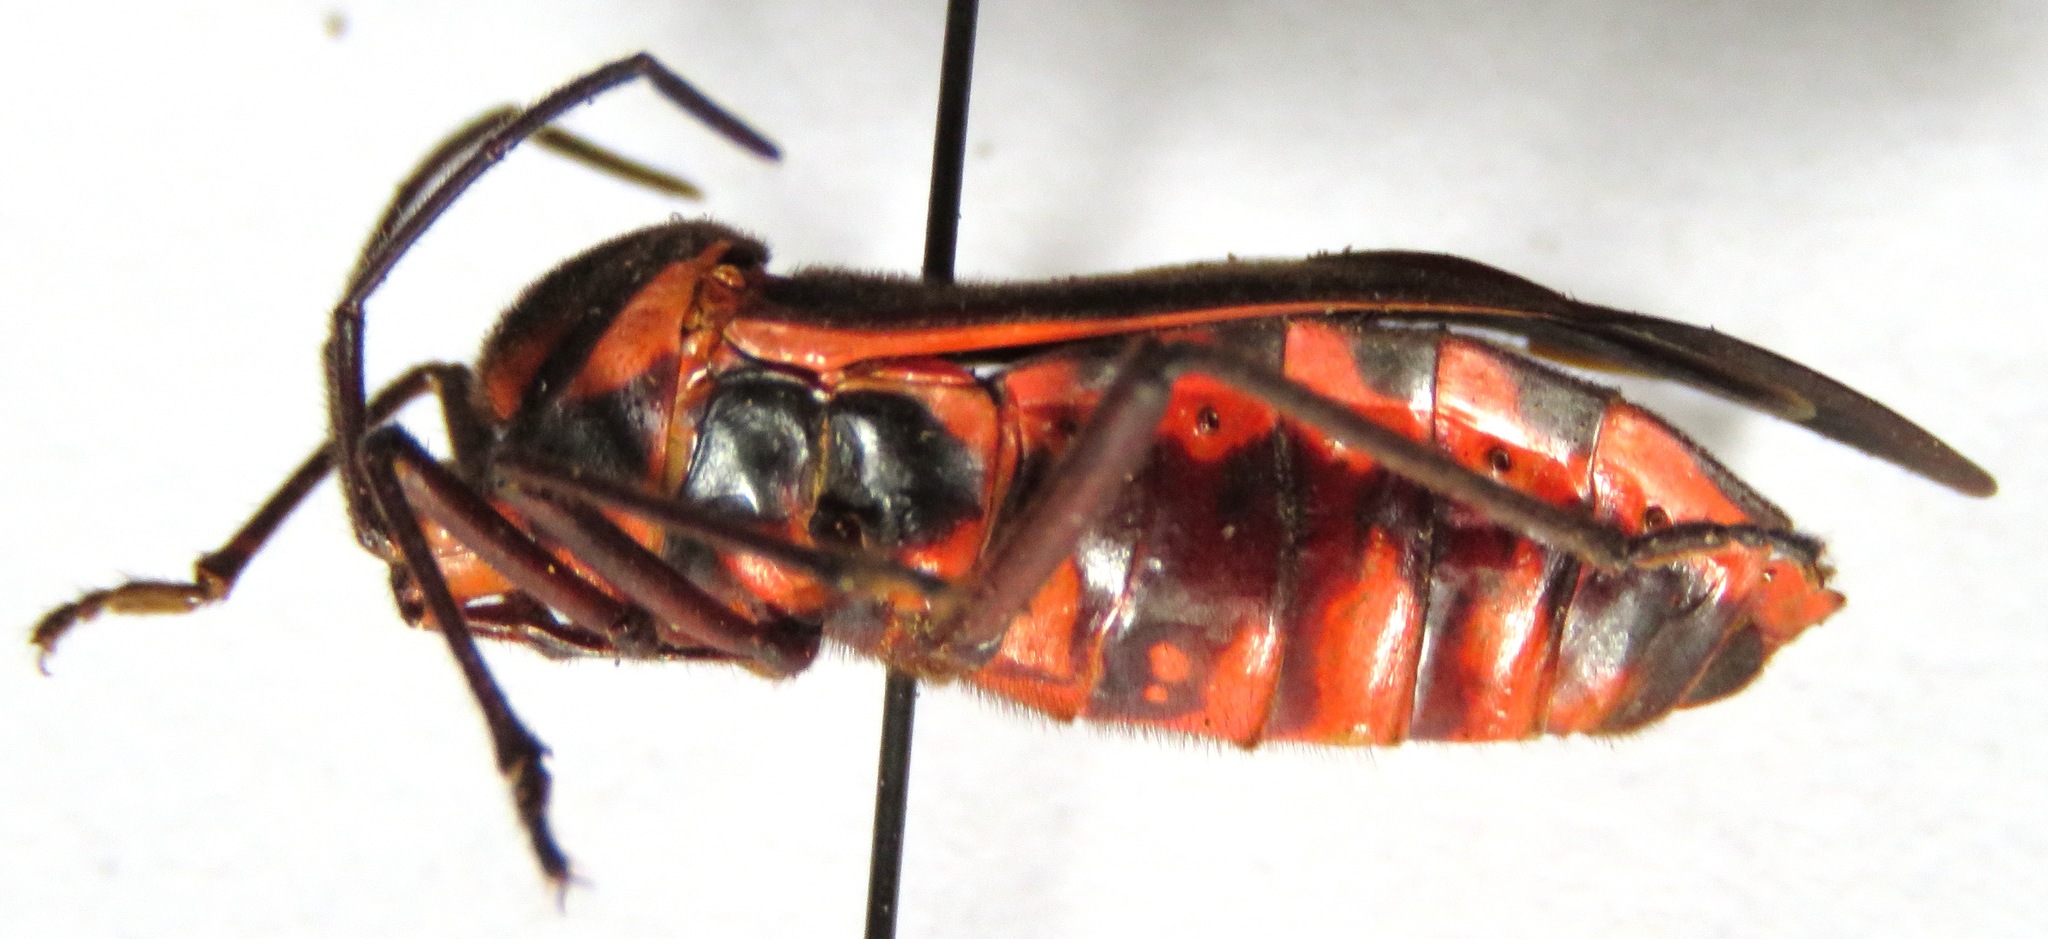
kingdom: Animalia
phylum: Arthropoda
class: Insecta
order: Hemiptera
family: Coreidae
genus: Sephina
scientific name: Sephina subulata
